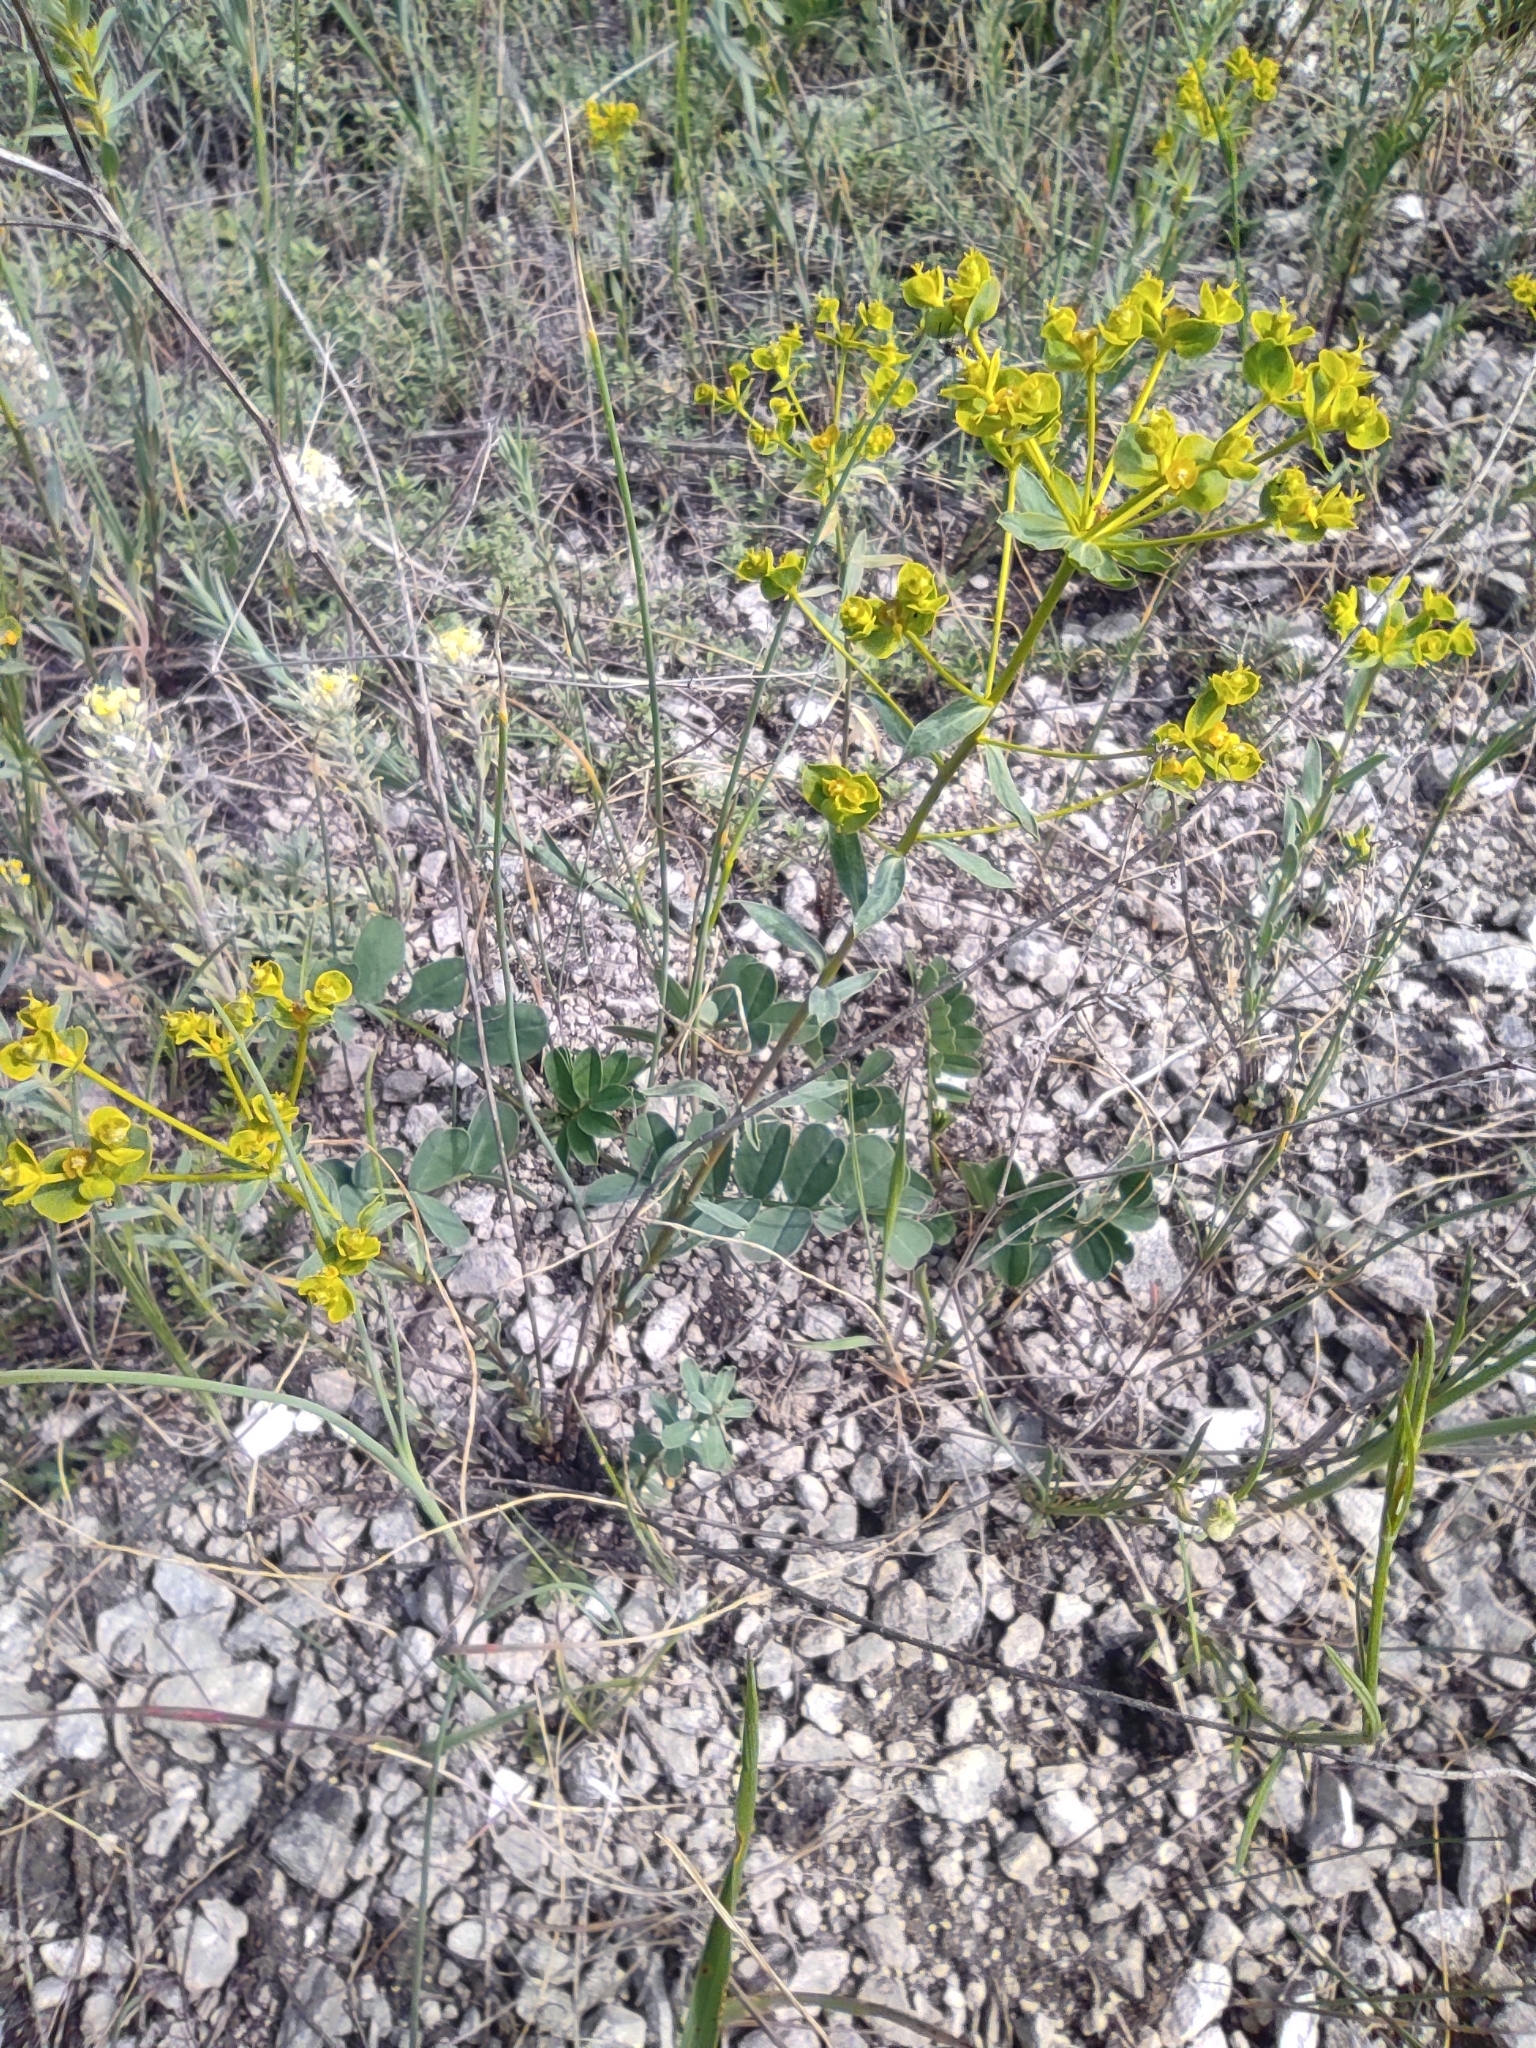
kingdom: Plantae
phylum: Tracheophyta
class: Magnoliopsida
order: Malpighiales
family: Euphorbiaceae
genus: Euphorbia
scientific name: Euphorbia seguieriana
